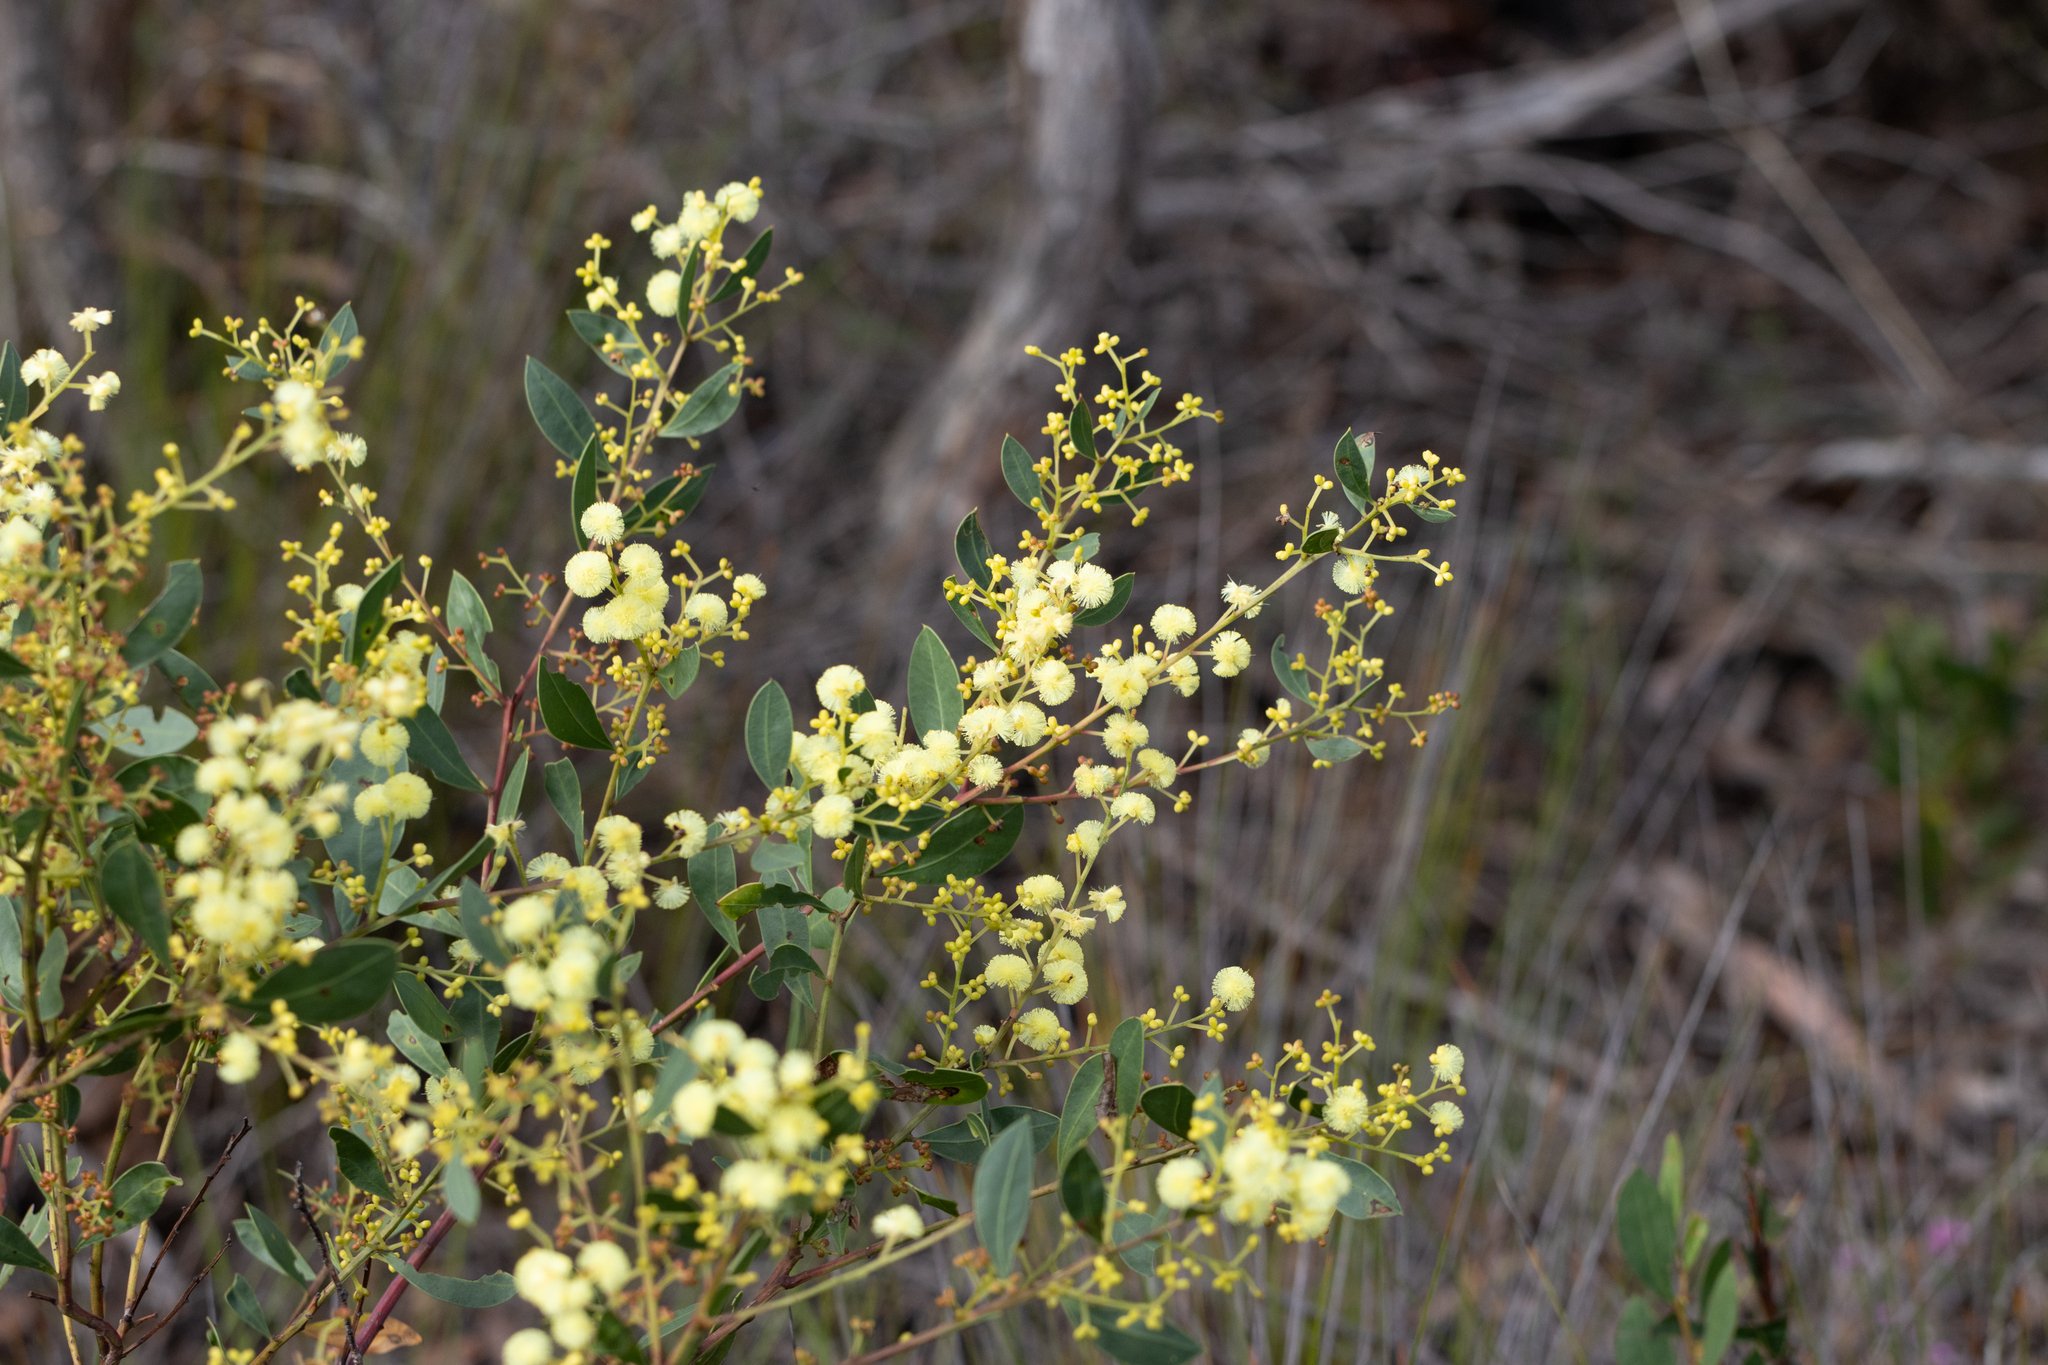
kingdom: Plantae
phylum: Tracheophyta
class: Magnoliopsida
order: Fabales
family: Fabaceae
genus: Acacia
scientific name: Acacia myrtifolia
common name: Myrtle wattle
